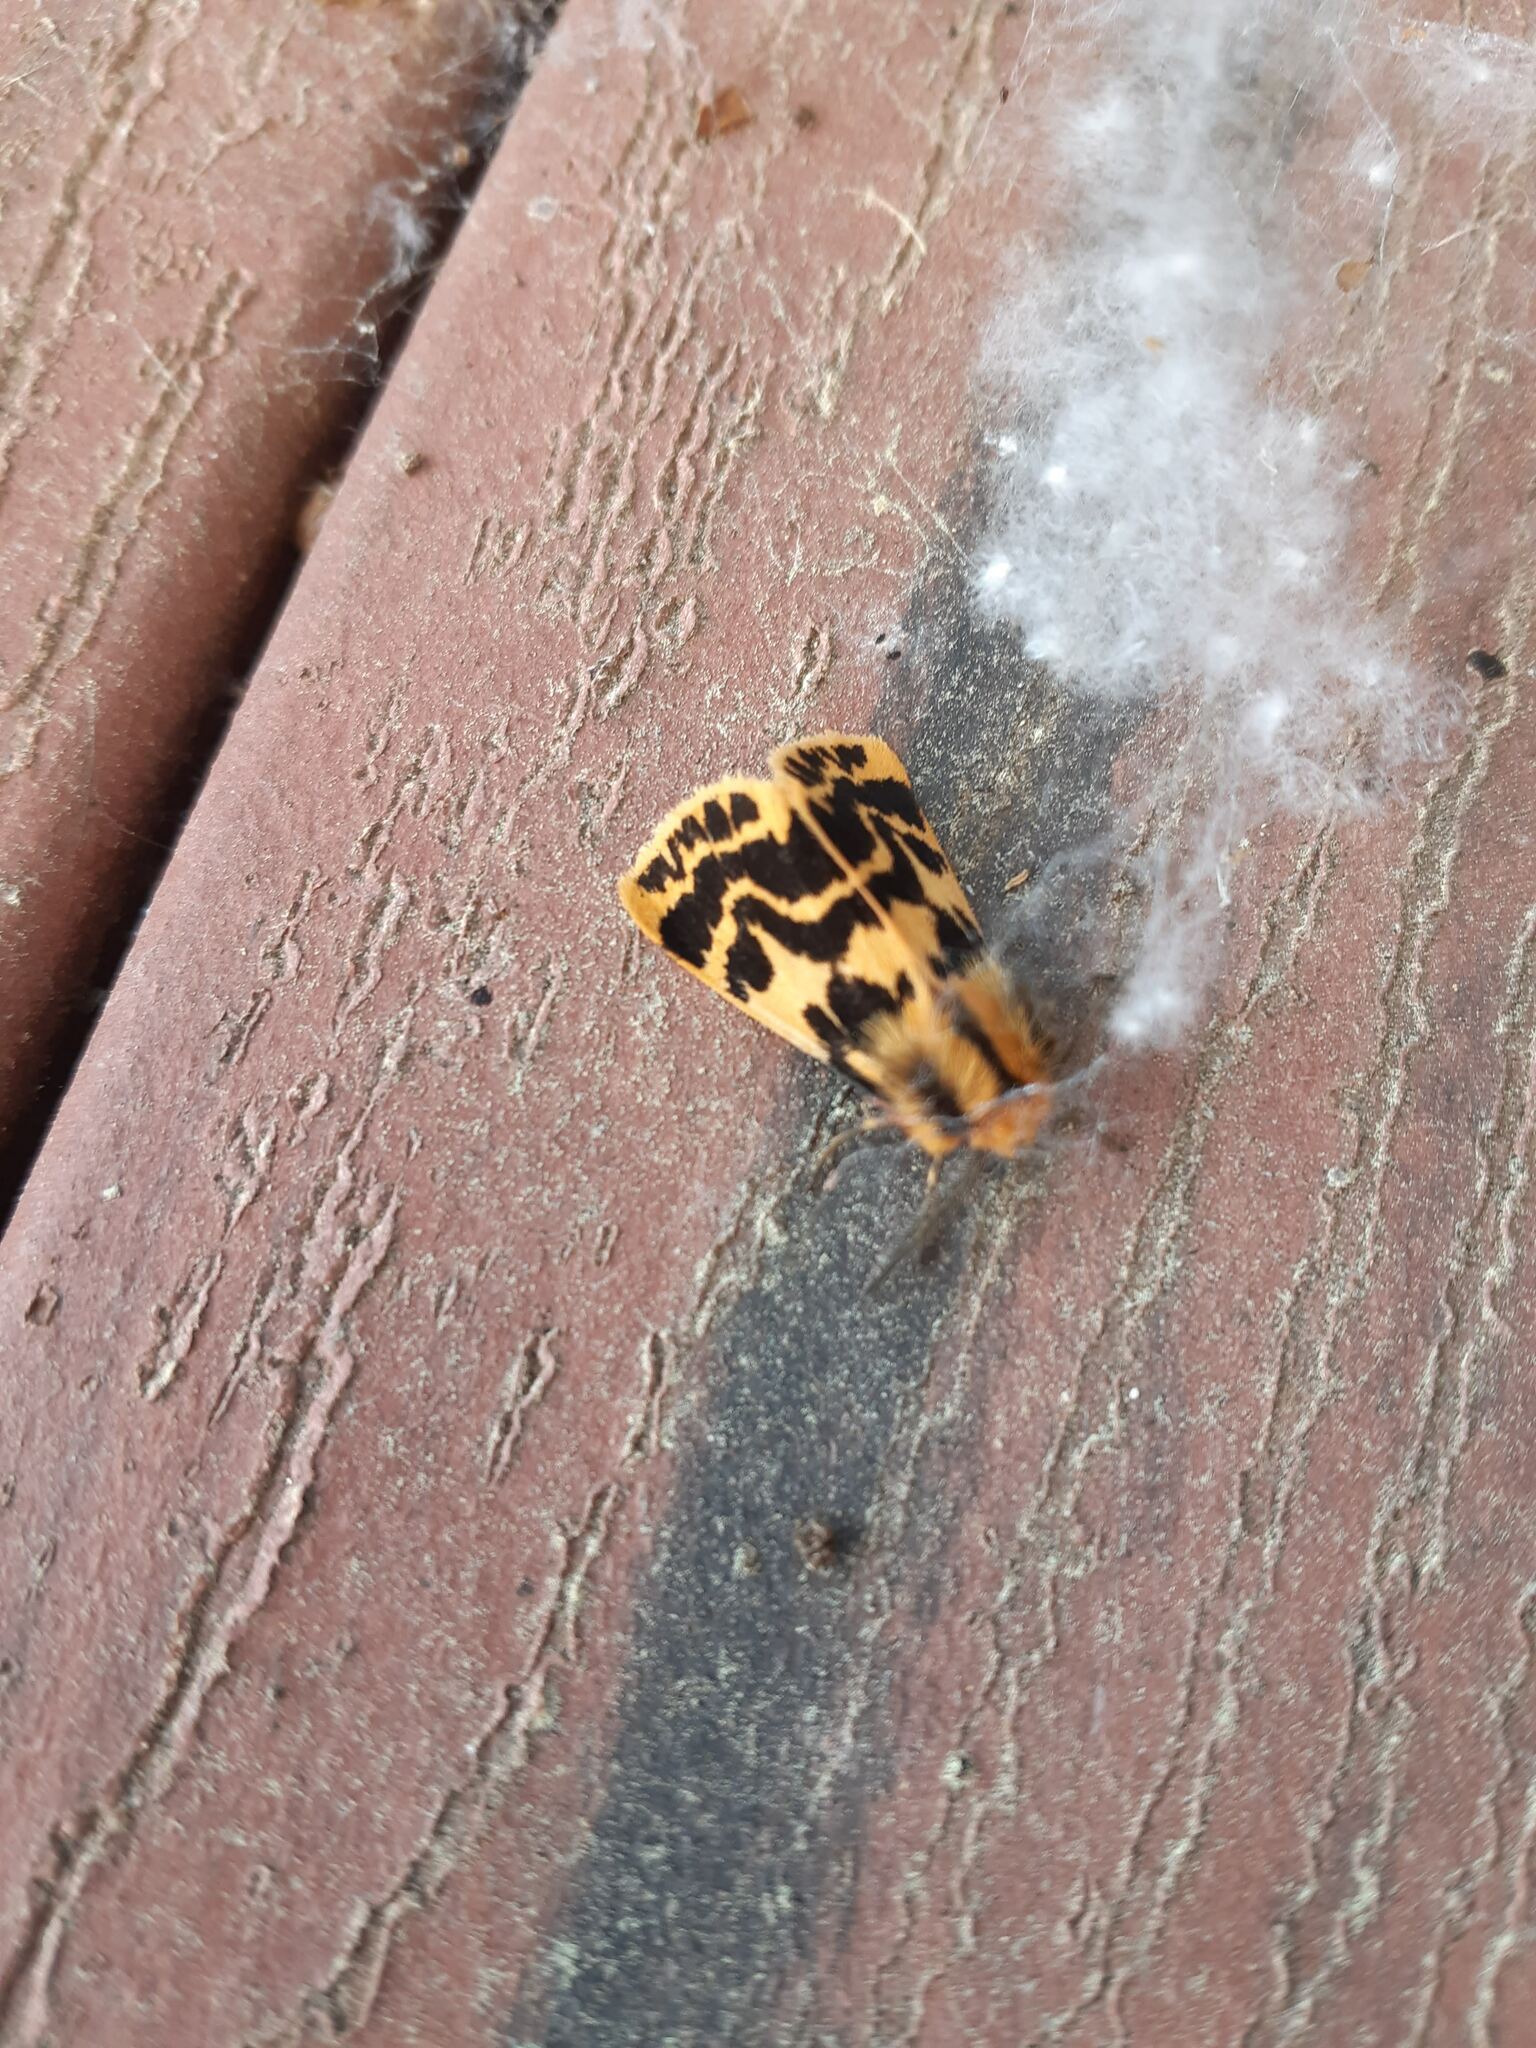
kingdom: Animalia
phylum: Arthropoda
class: Insecta
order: Lepidoptera
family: Erebidae
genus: Ardices
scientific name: Ardices curvata
